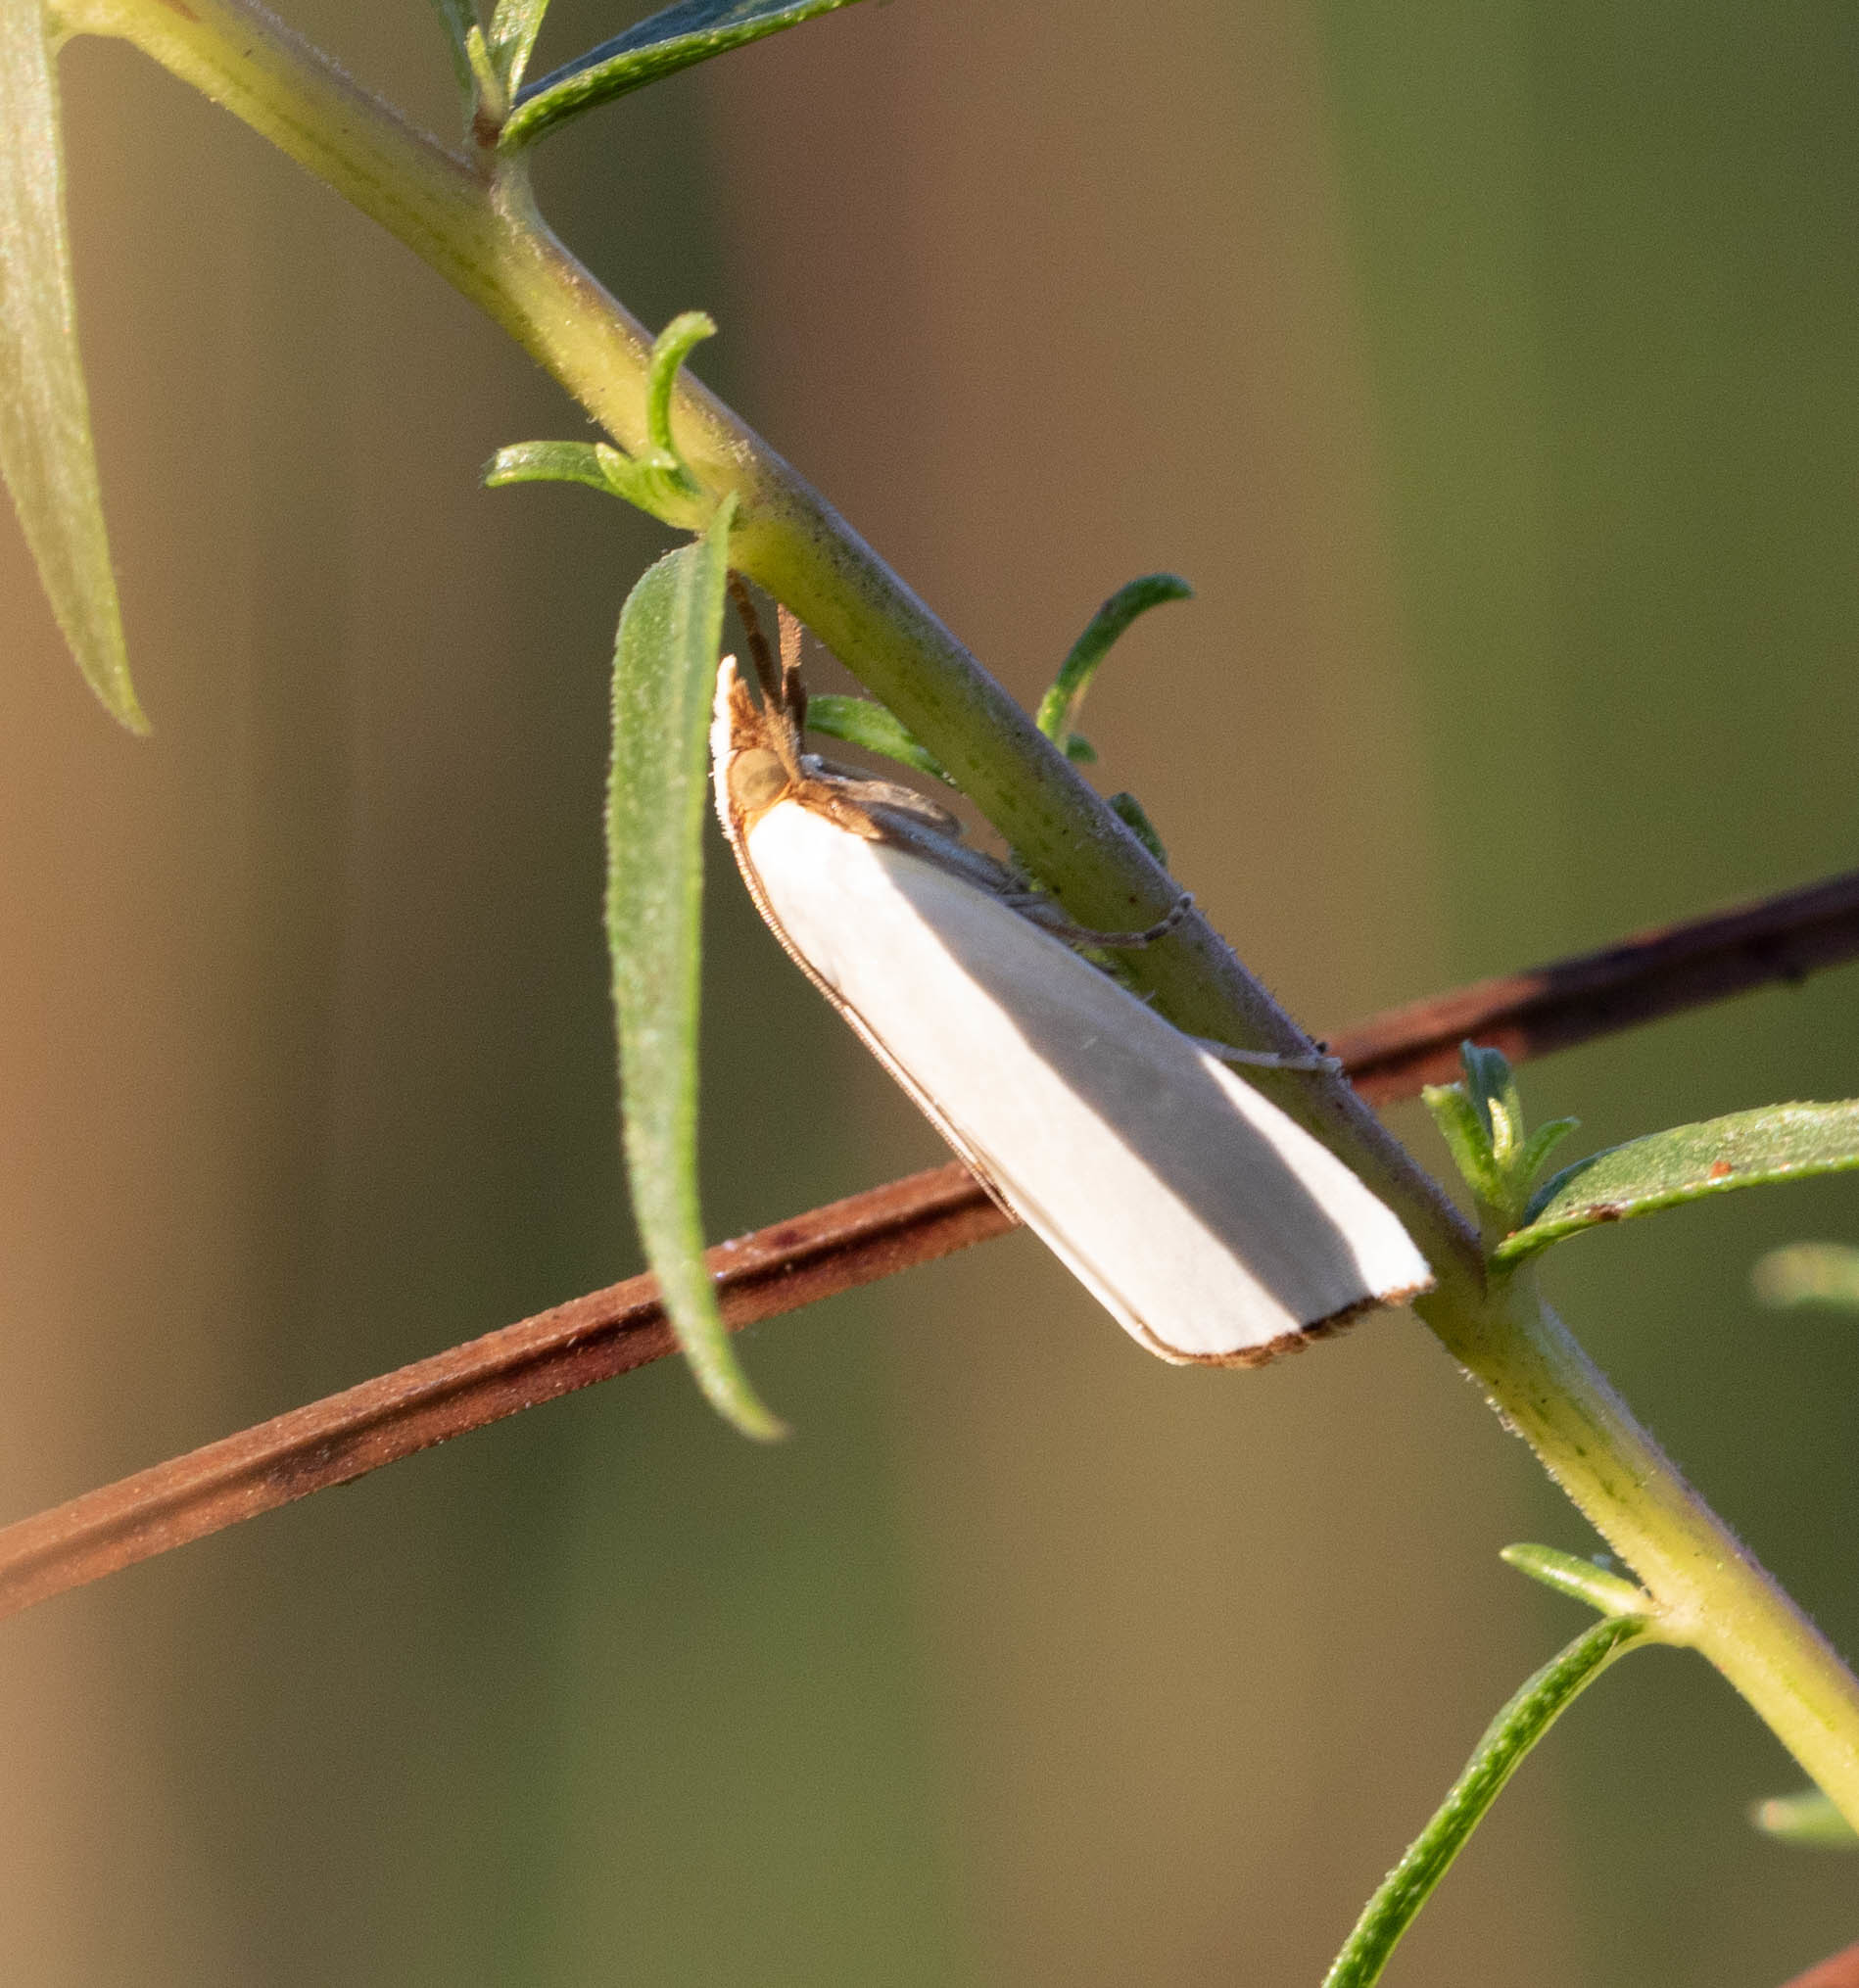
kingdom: Animalia
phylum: Arthropoda
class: Insecta
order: Lepidoptera
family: Crambidae
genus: Argyria
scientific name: Argyria nivalis
